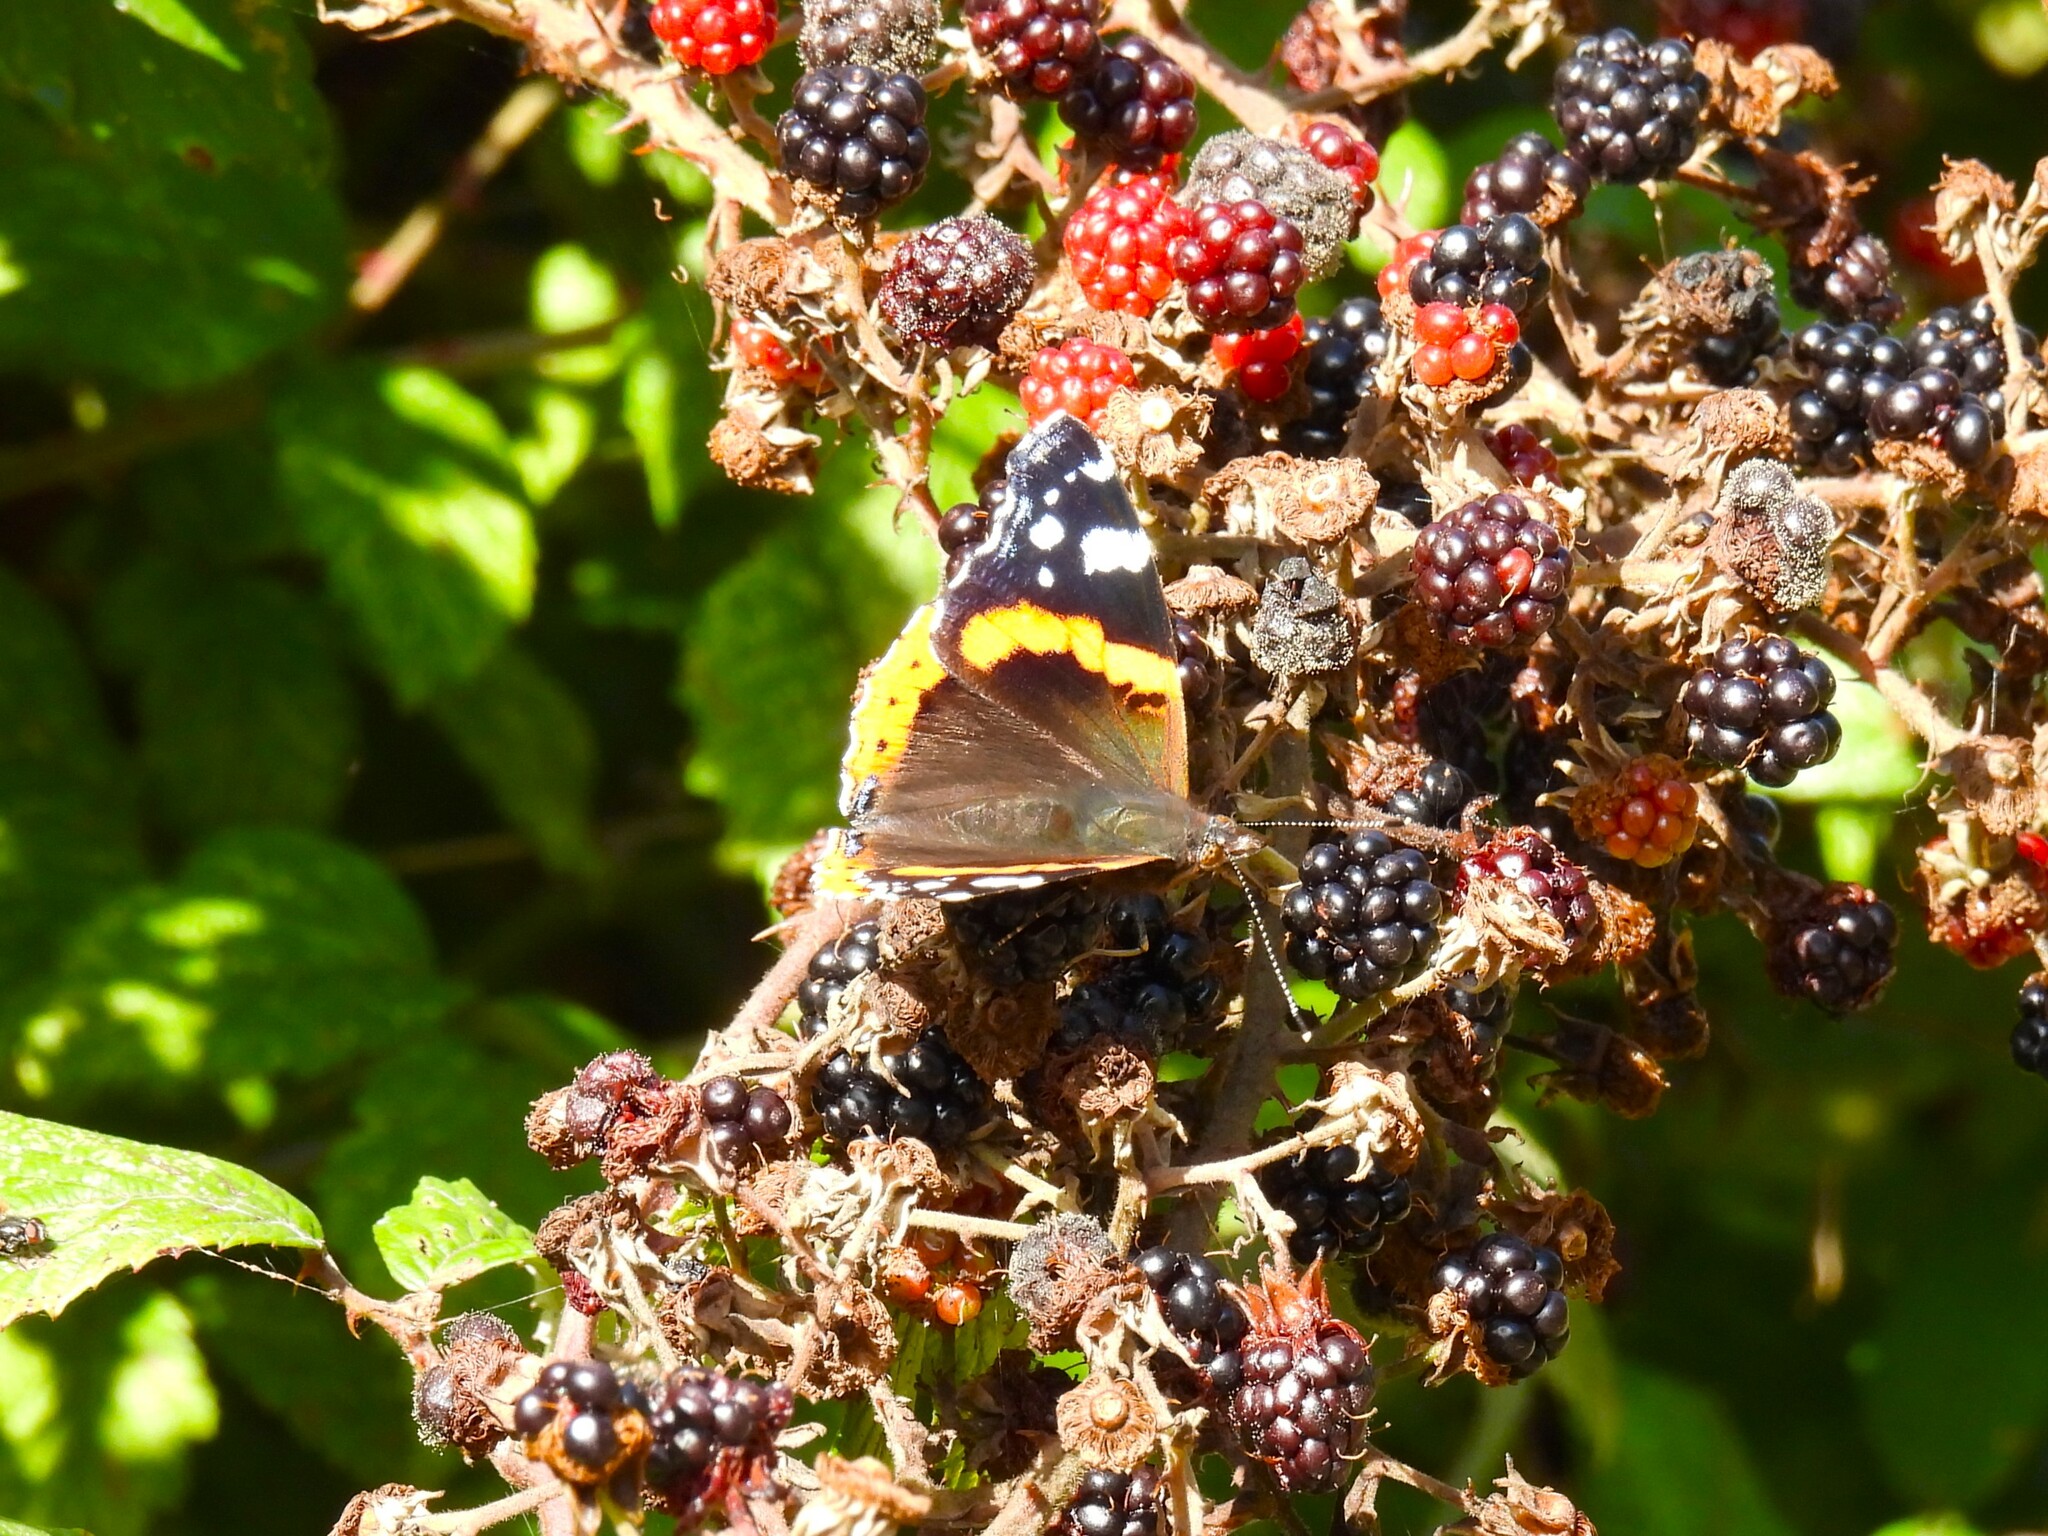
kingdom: Animalia
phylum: Arthropoda
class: Insecta
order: Lepidoptera
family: Nymphalidae
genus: Vanessa
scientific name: Vanessa atalanta
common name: Red admiral
